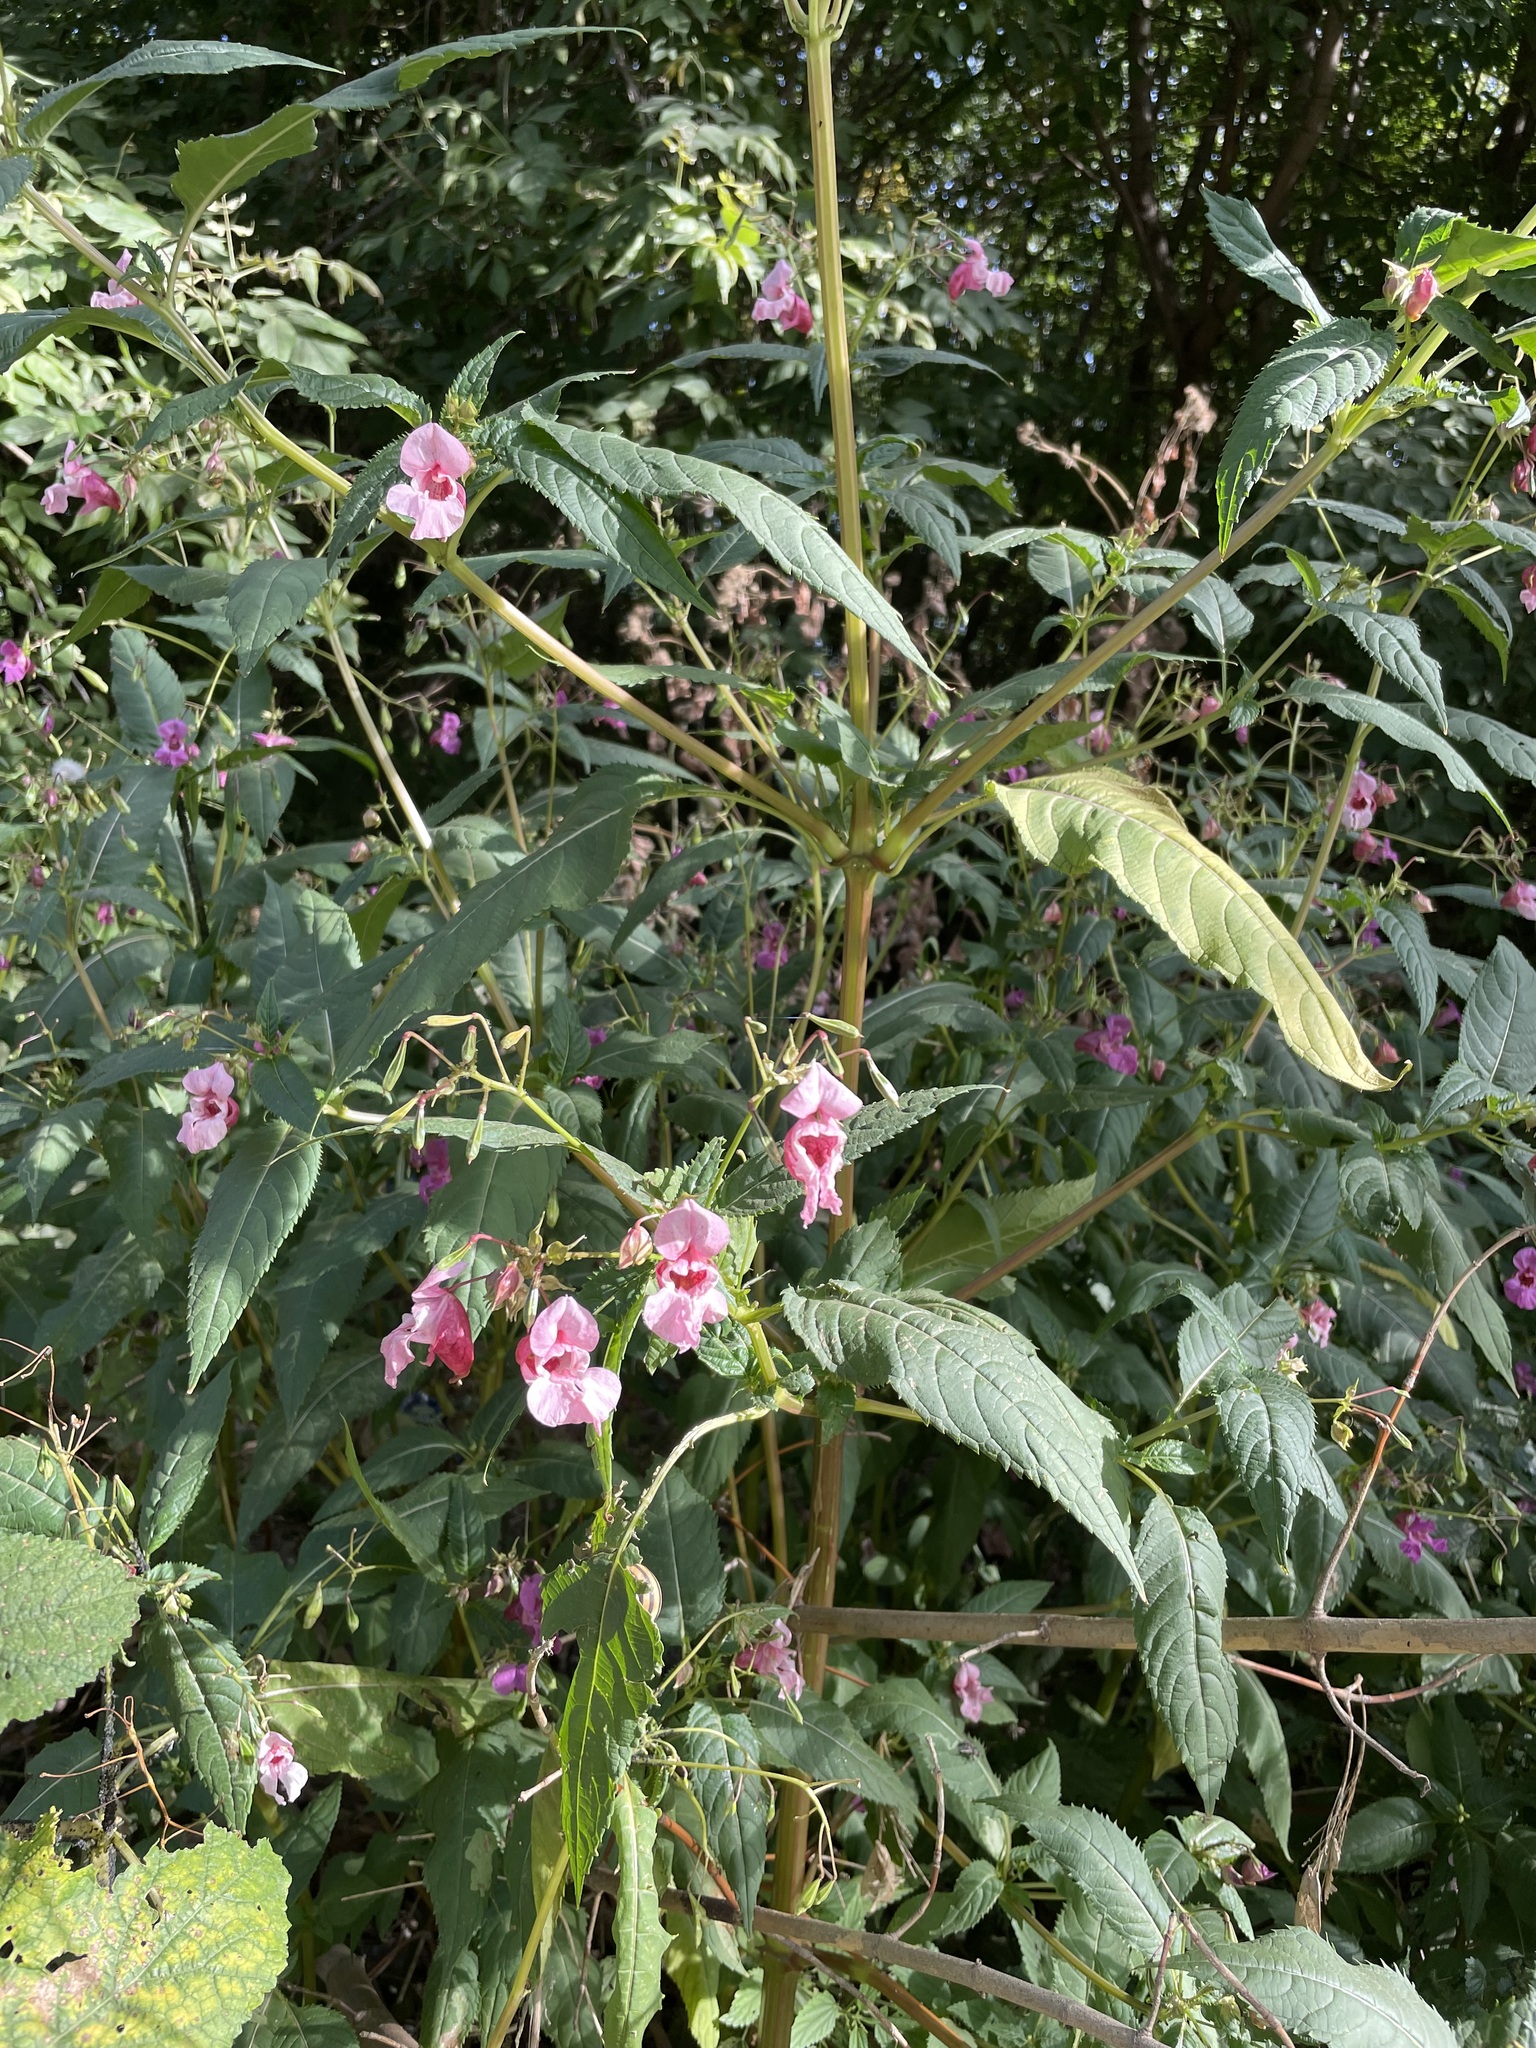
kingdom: Plantae
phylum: Tracheophyta
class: Magnoliopsida
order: Ericales
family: Balsaminaceae
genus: Impatiens
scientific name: Impatiens glandulifera
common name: Himalayan balsam
